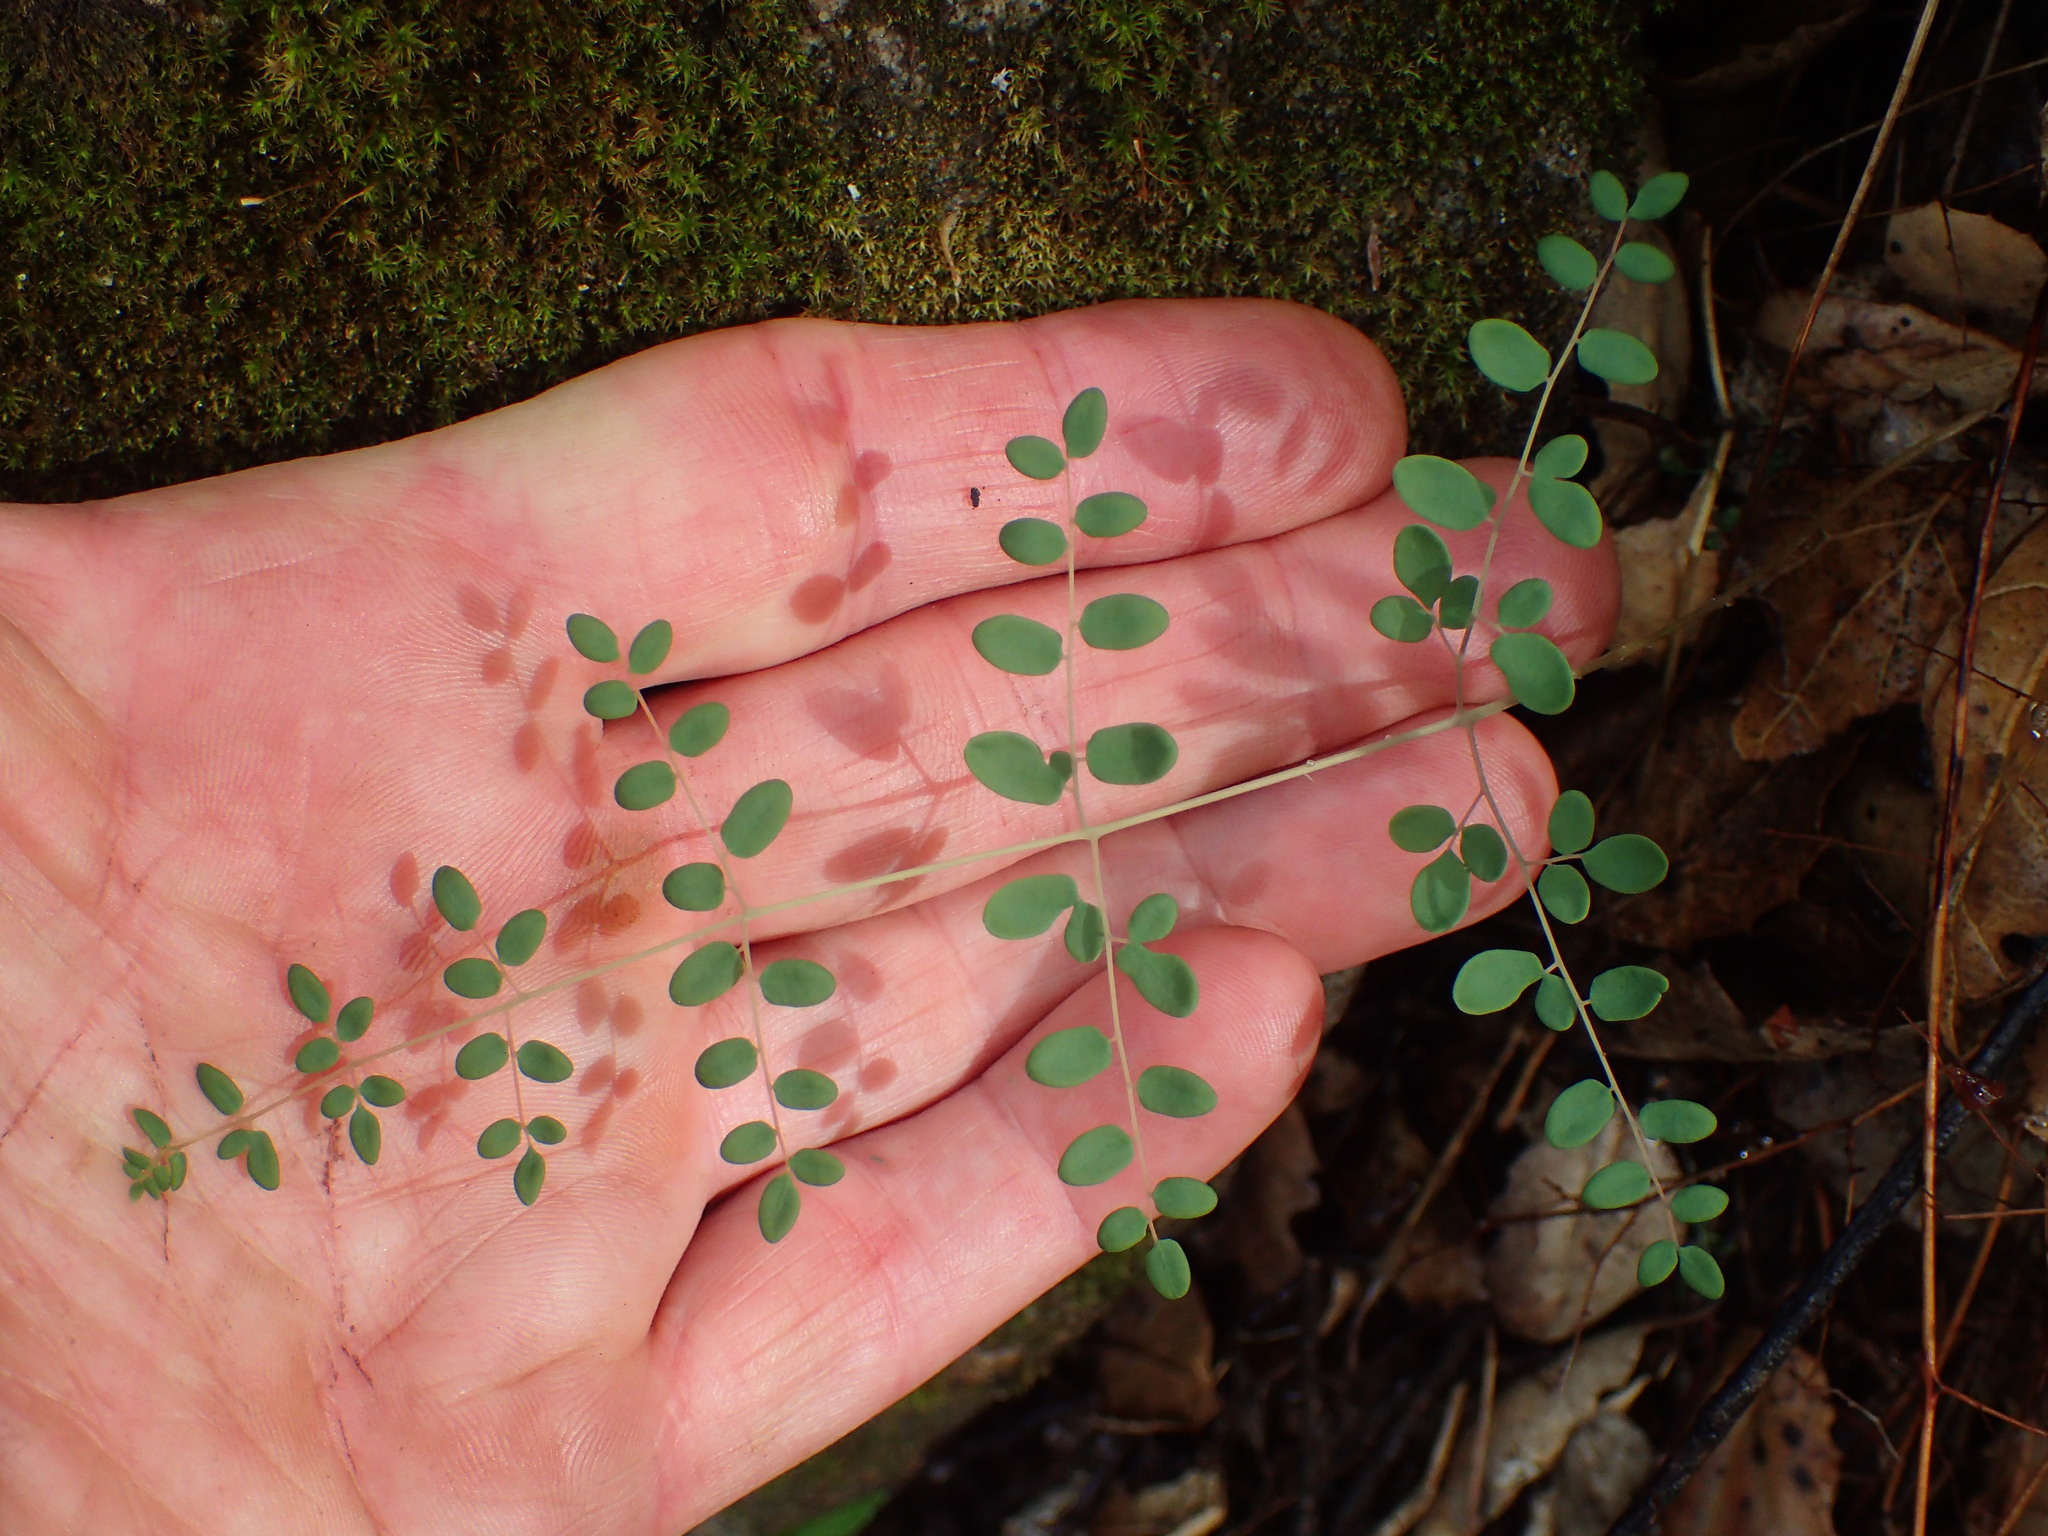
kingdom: Plantae
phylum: Tracheophyta
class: Polypodiopsida
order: Polypodiales
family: Pteridaceae
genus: Pellaea
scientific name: Pellaea andromedifolia
